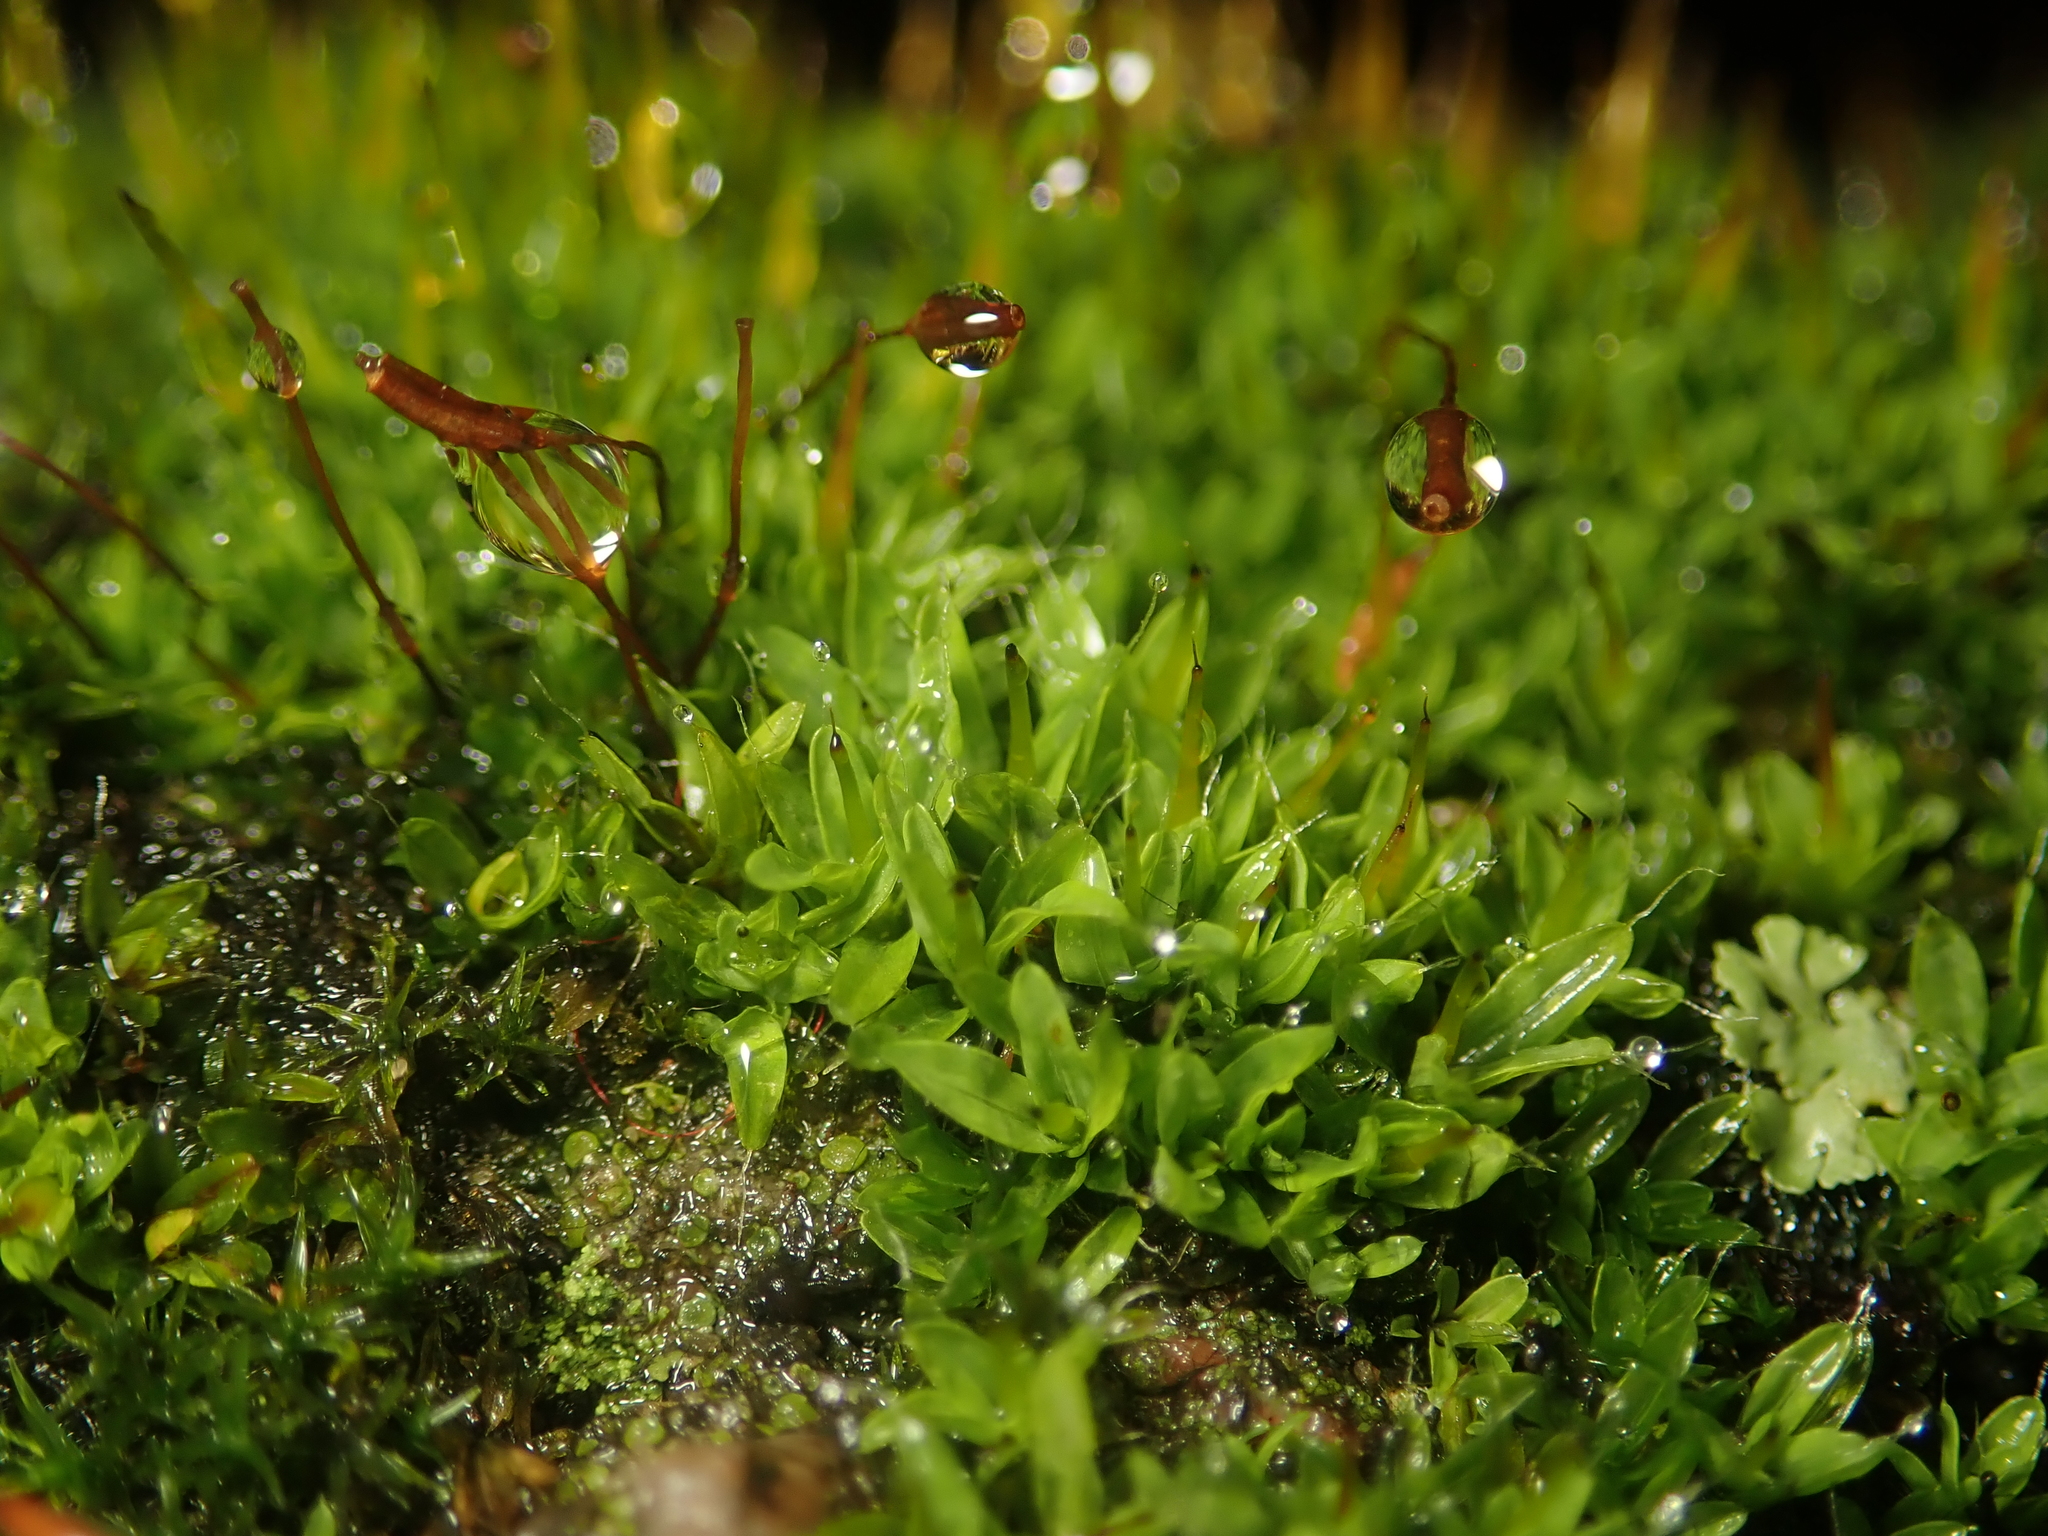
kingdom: Plantae
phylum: Bryophyta
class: Bryopsida
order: Pottiales
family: Pottiaceae
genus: Tortula
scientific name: Tortula muralis
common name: Wall screw-moss
